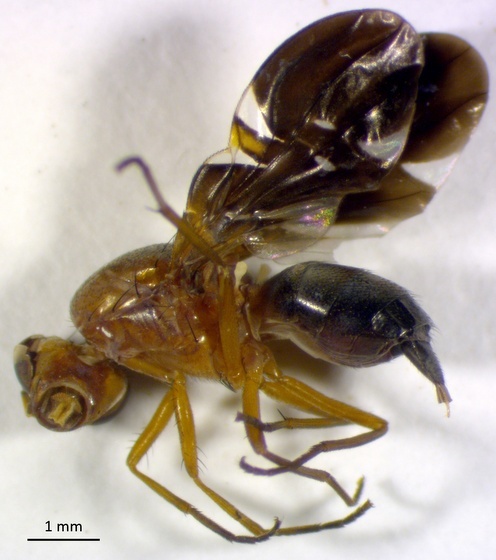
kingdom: Animalia
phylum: Arthropoda
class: Insecta
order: Diptera
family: Ulidiidae
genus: Delphinia
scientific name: Delphinia picta
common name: Common picture-winged fly
